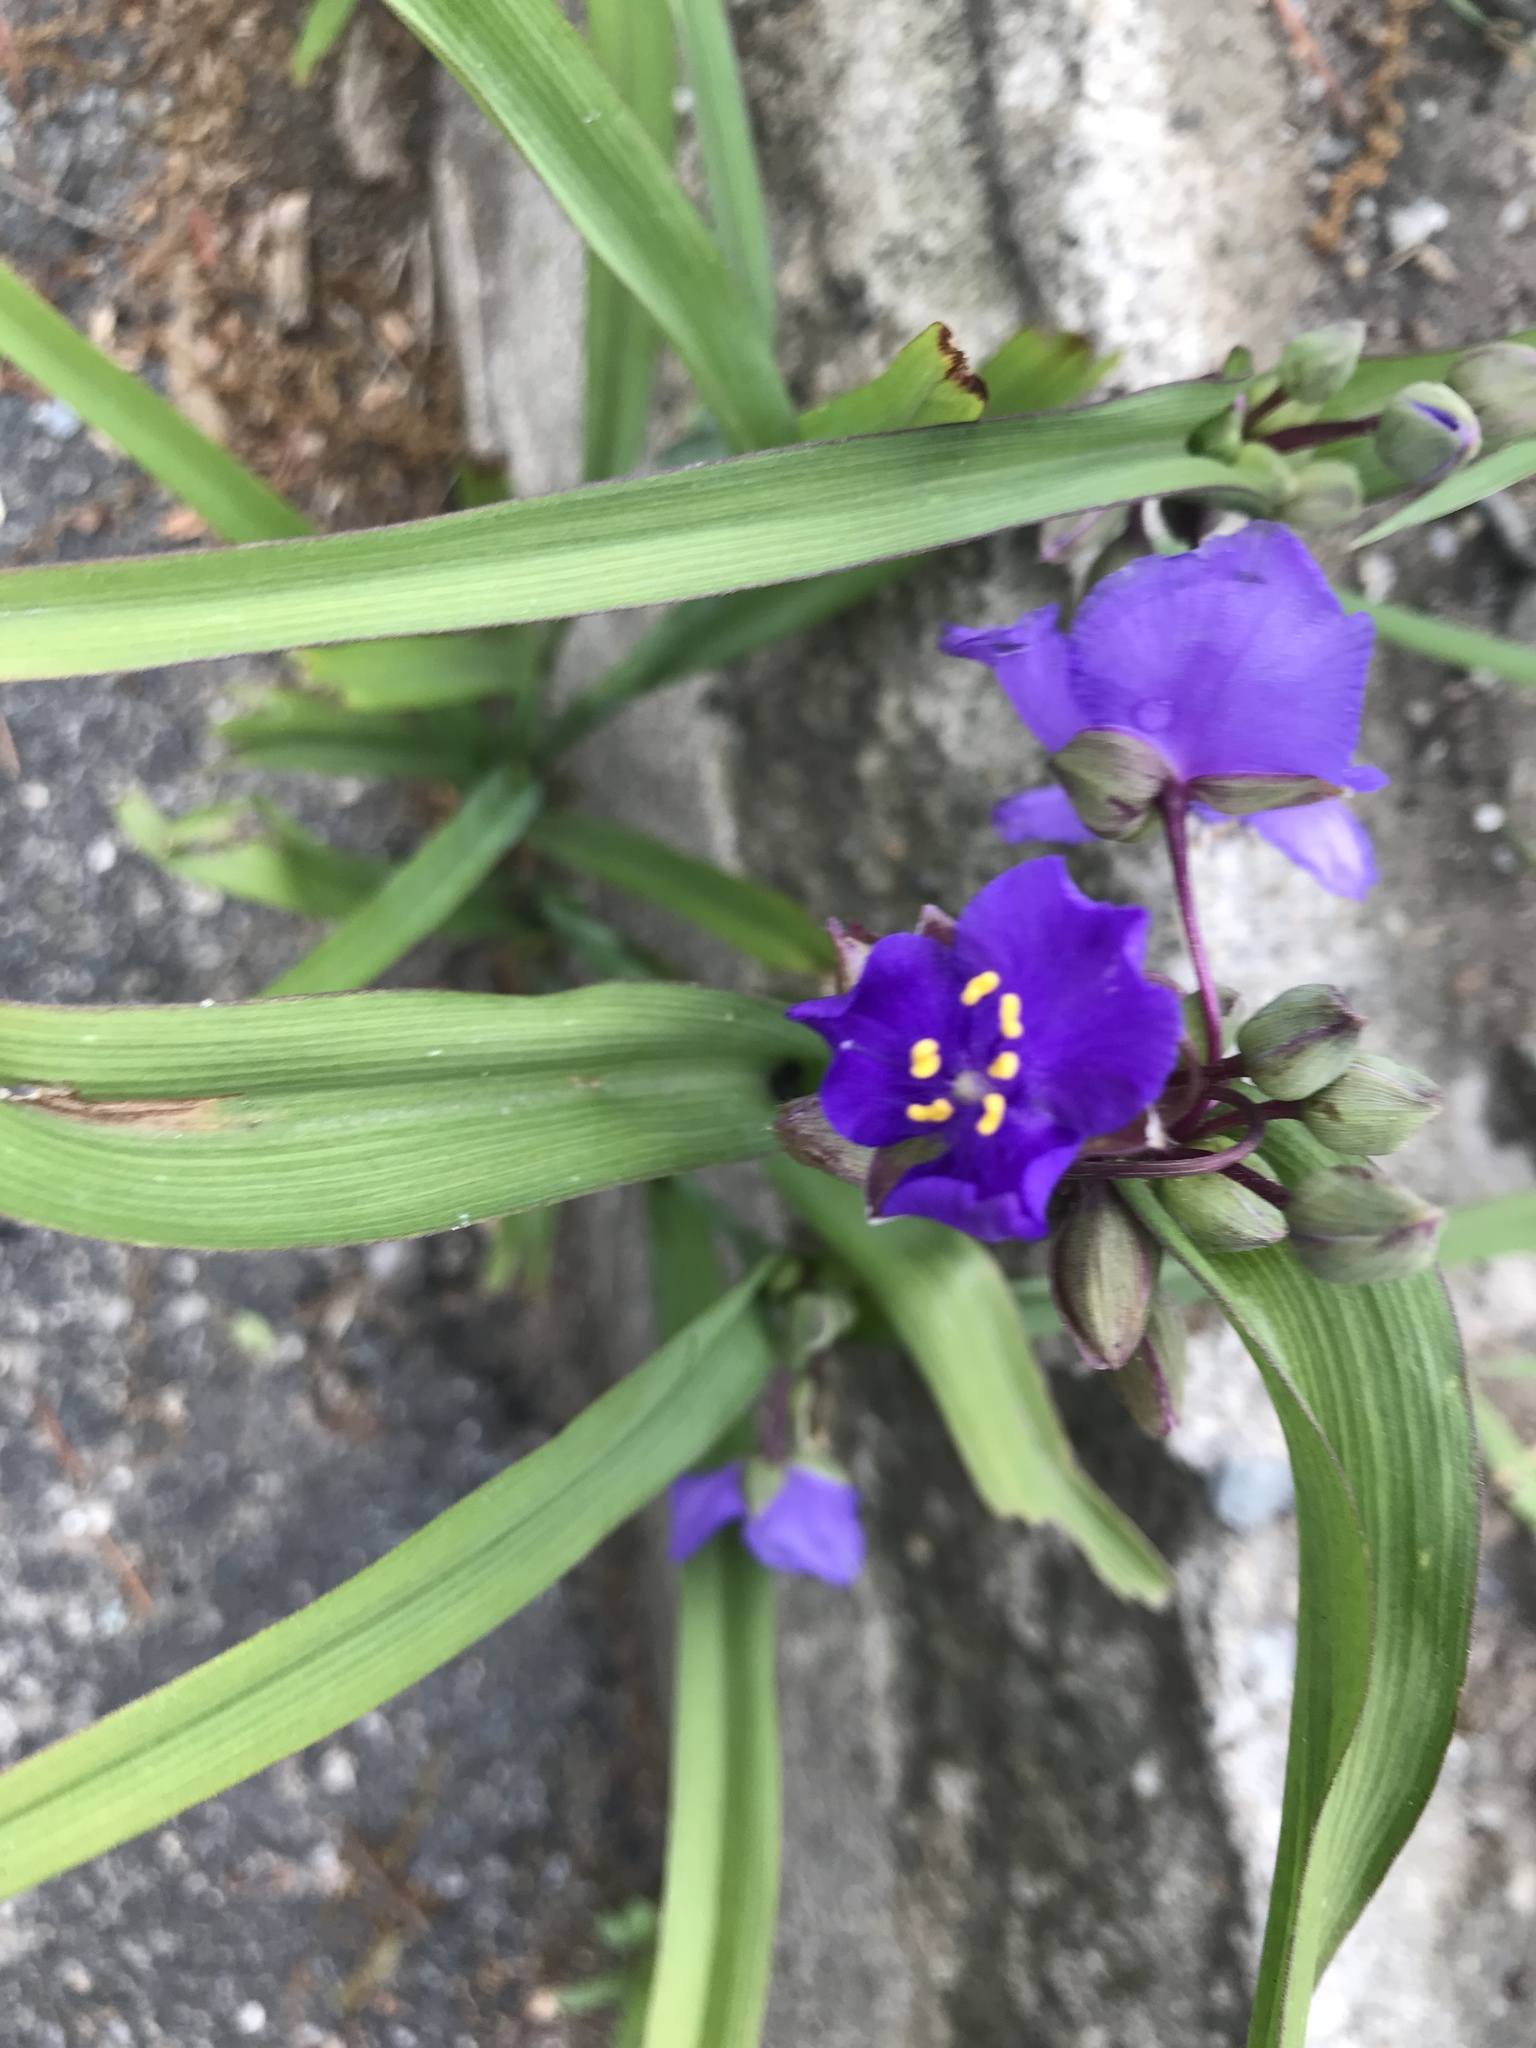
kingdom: Plantae
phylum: Tracheophyta
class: Liliopsida
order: Commelinales
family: Commelinaceae
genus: Tradescantia
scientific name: Tradescantia virginiana
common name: Spiderwort
